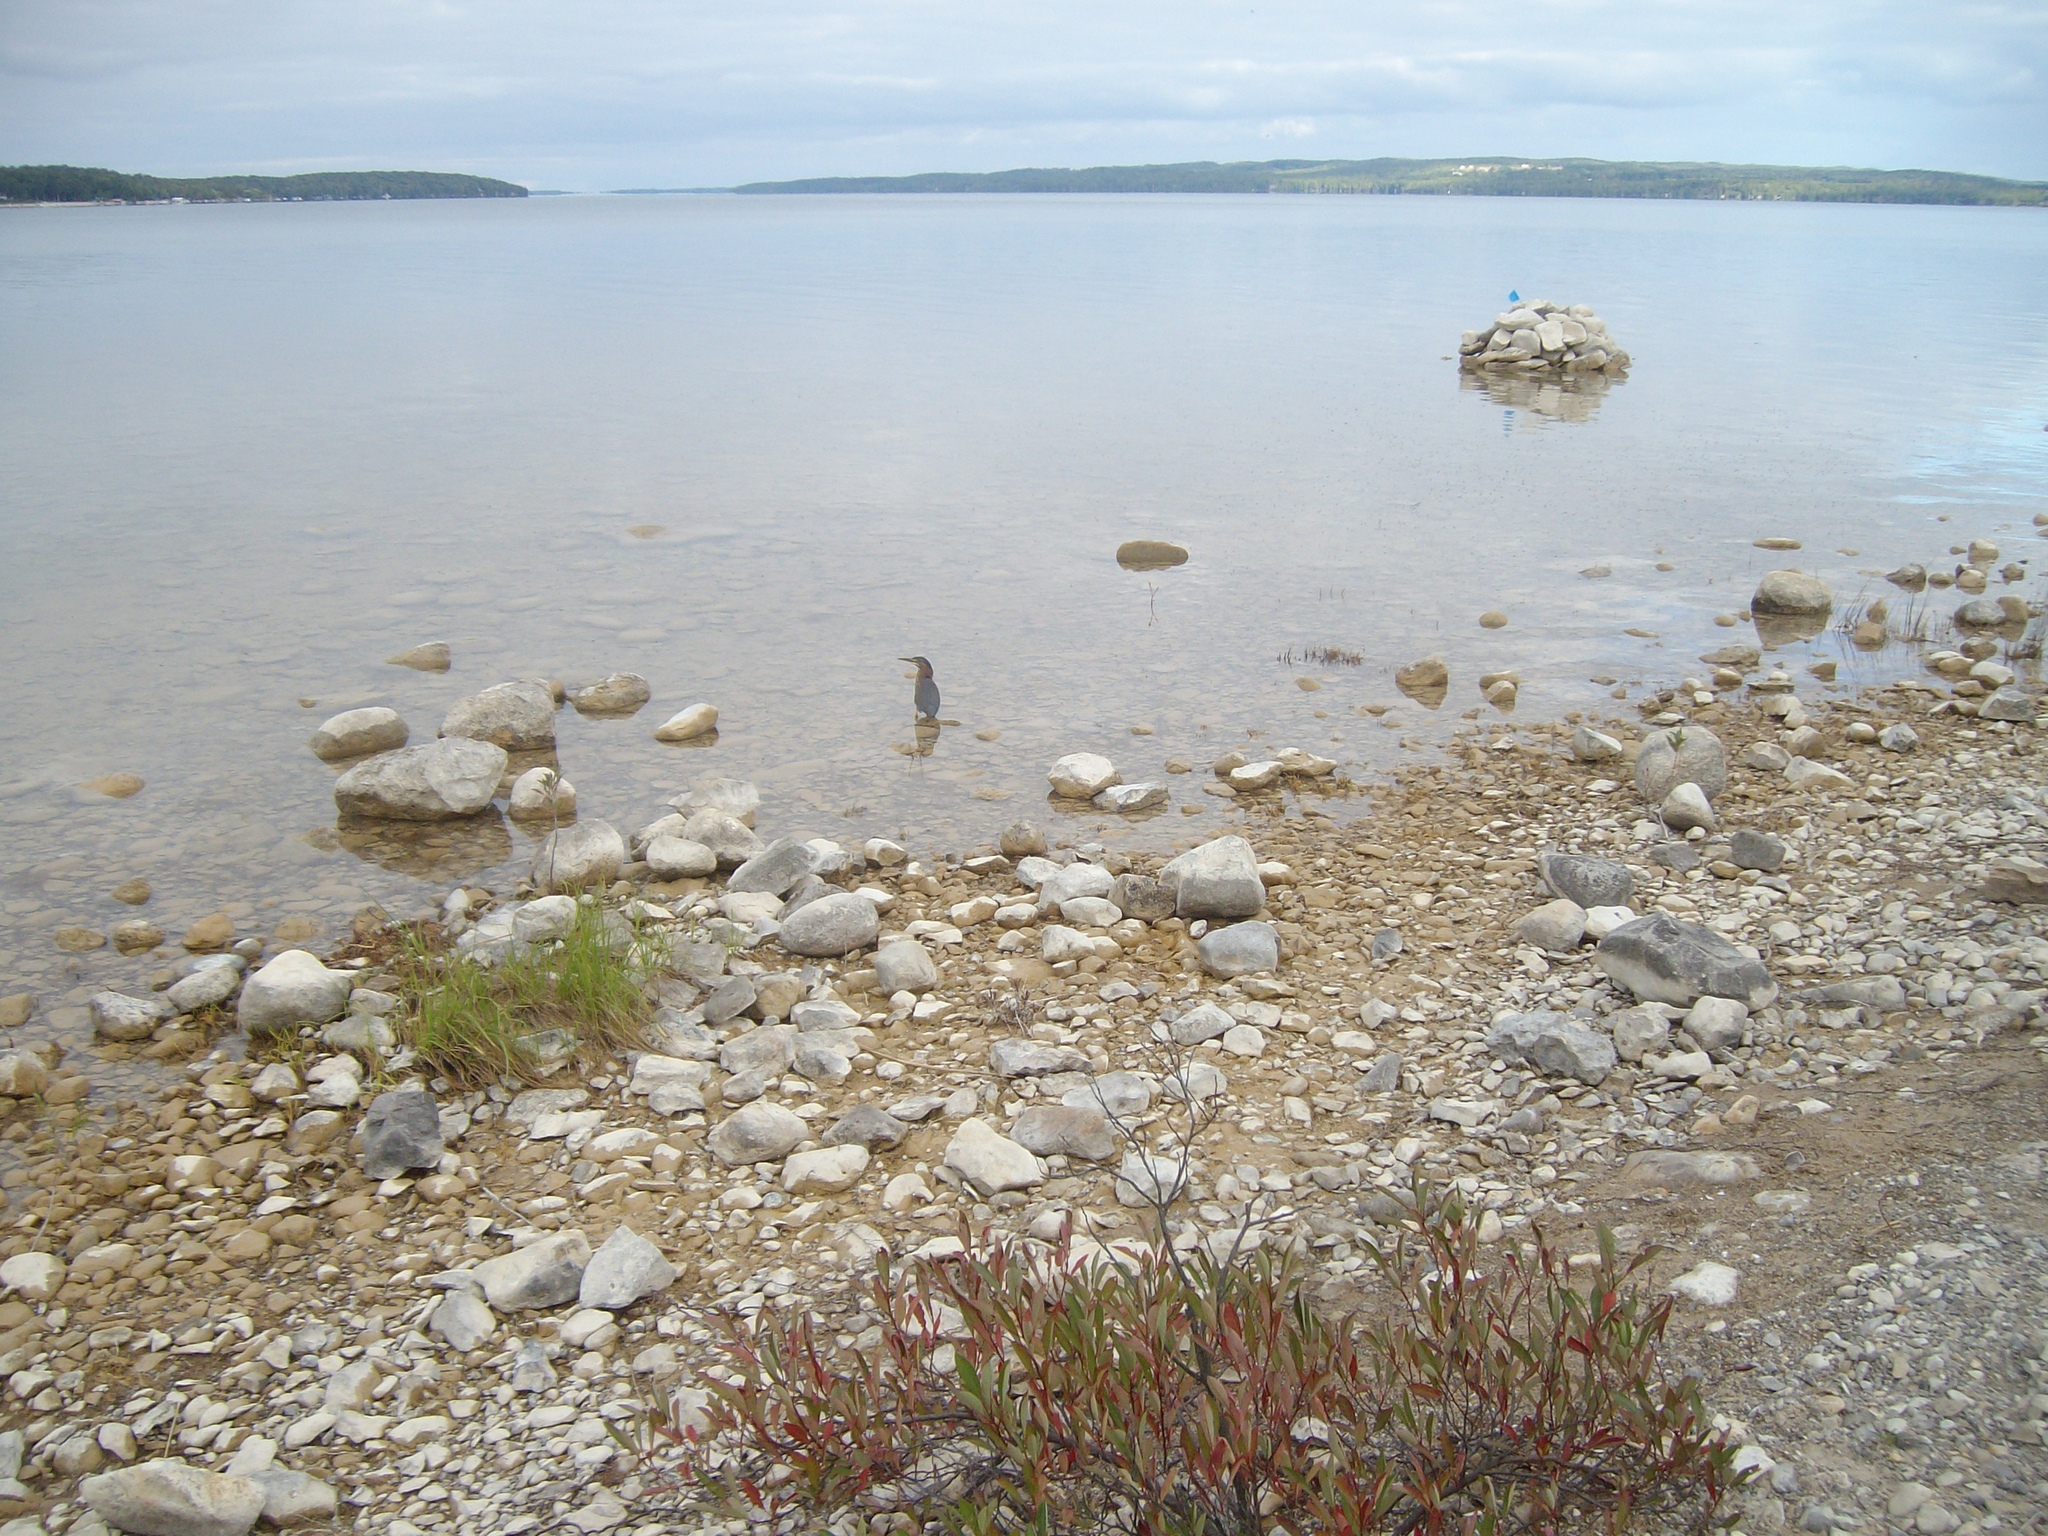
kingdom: Animalia
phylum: Chordata
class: Aves
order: Pelecaniformes
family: Ardeidae
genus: Butorides
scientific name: Butorides virescens
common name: Green heron
